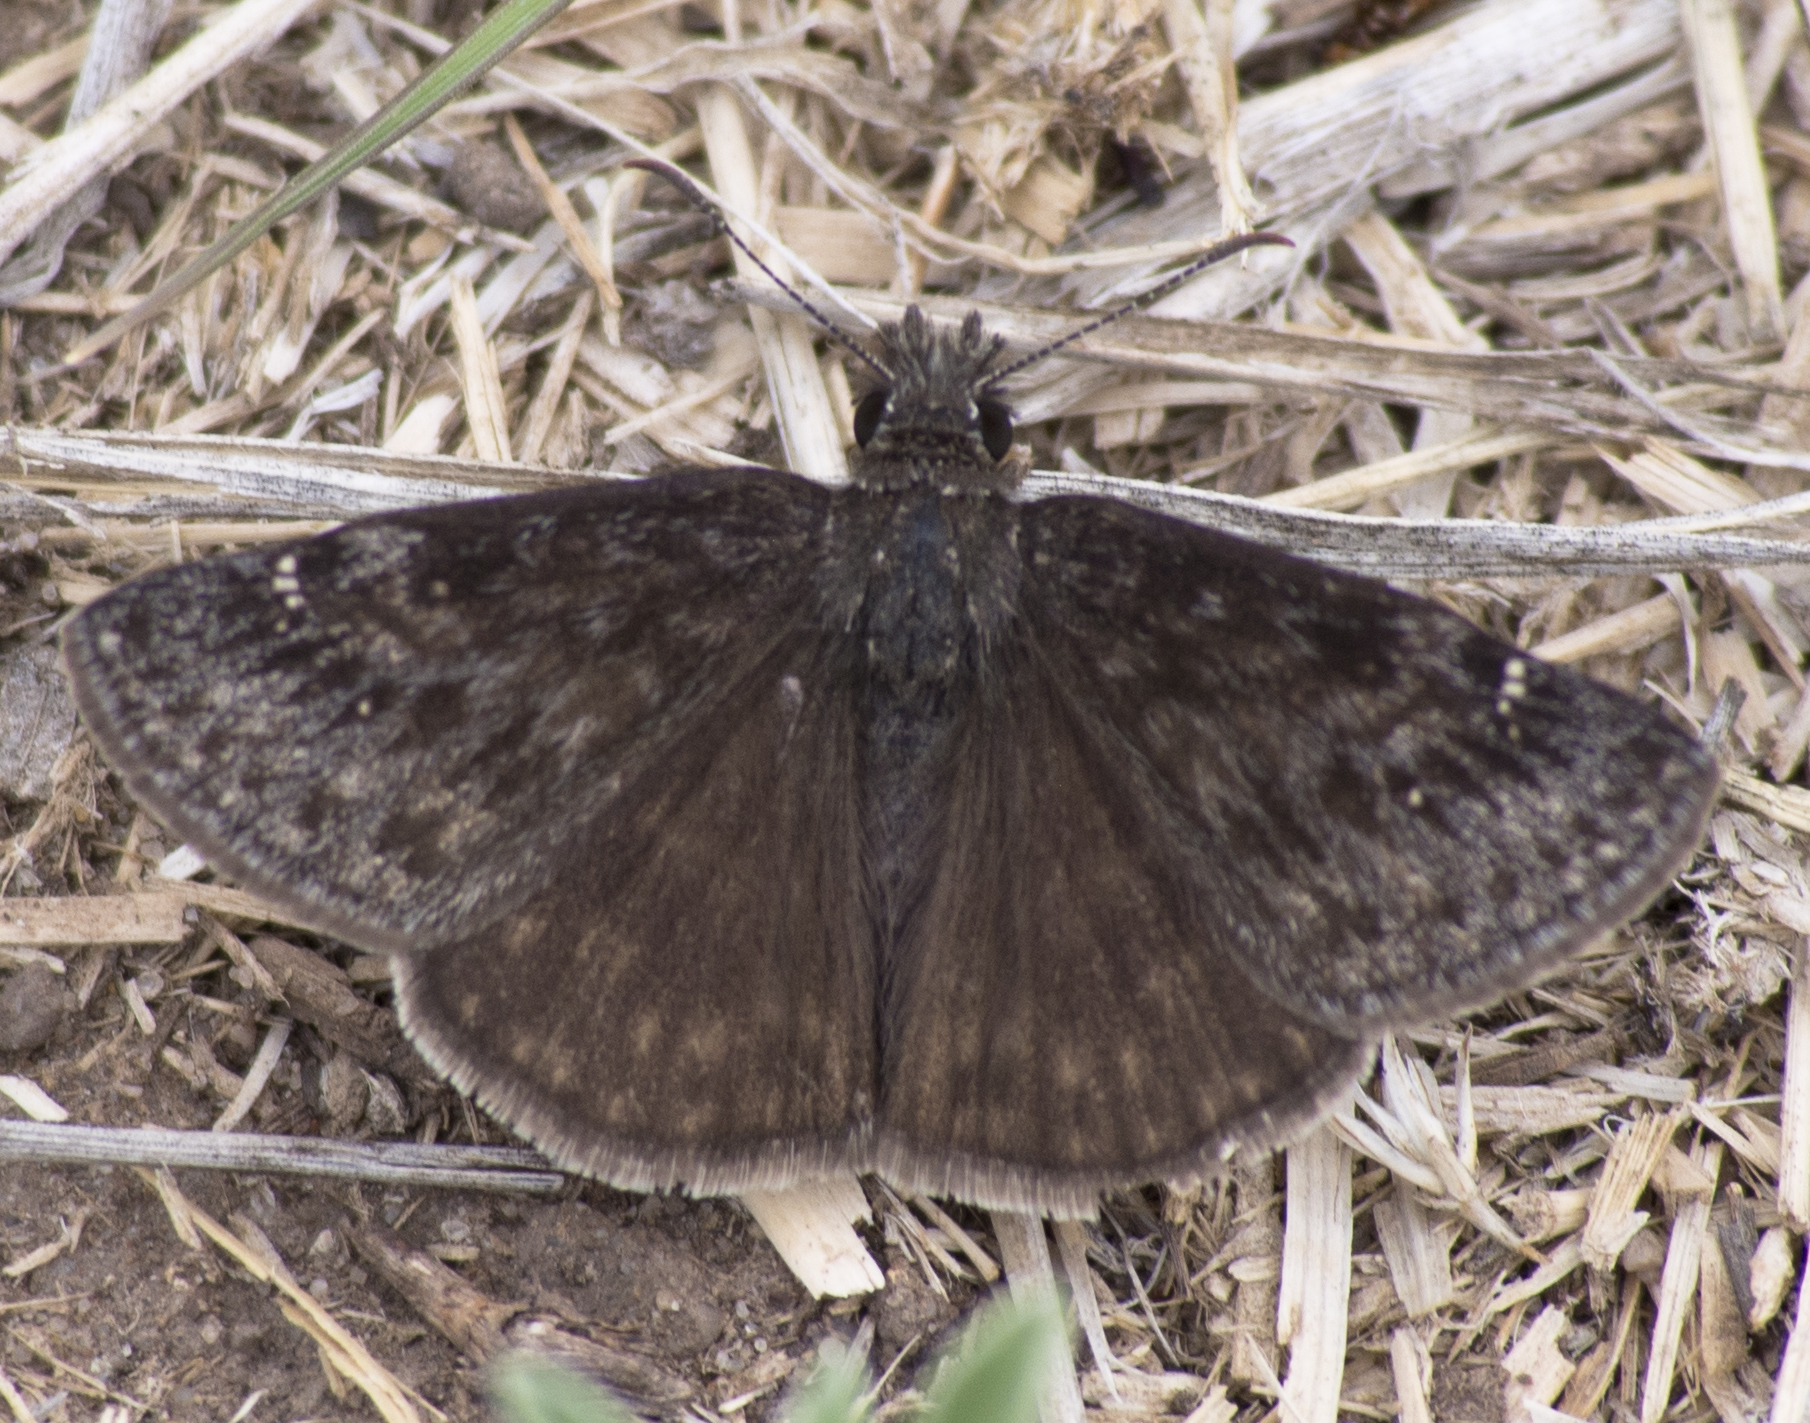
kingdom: Animalia
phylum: Arthropoda
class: Insecta
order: Lepidoptera
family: Hesperiidae
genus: Erynnis
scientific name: Erynnis persius
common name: Persius duskywing
